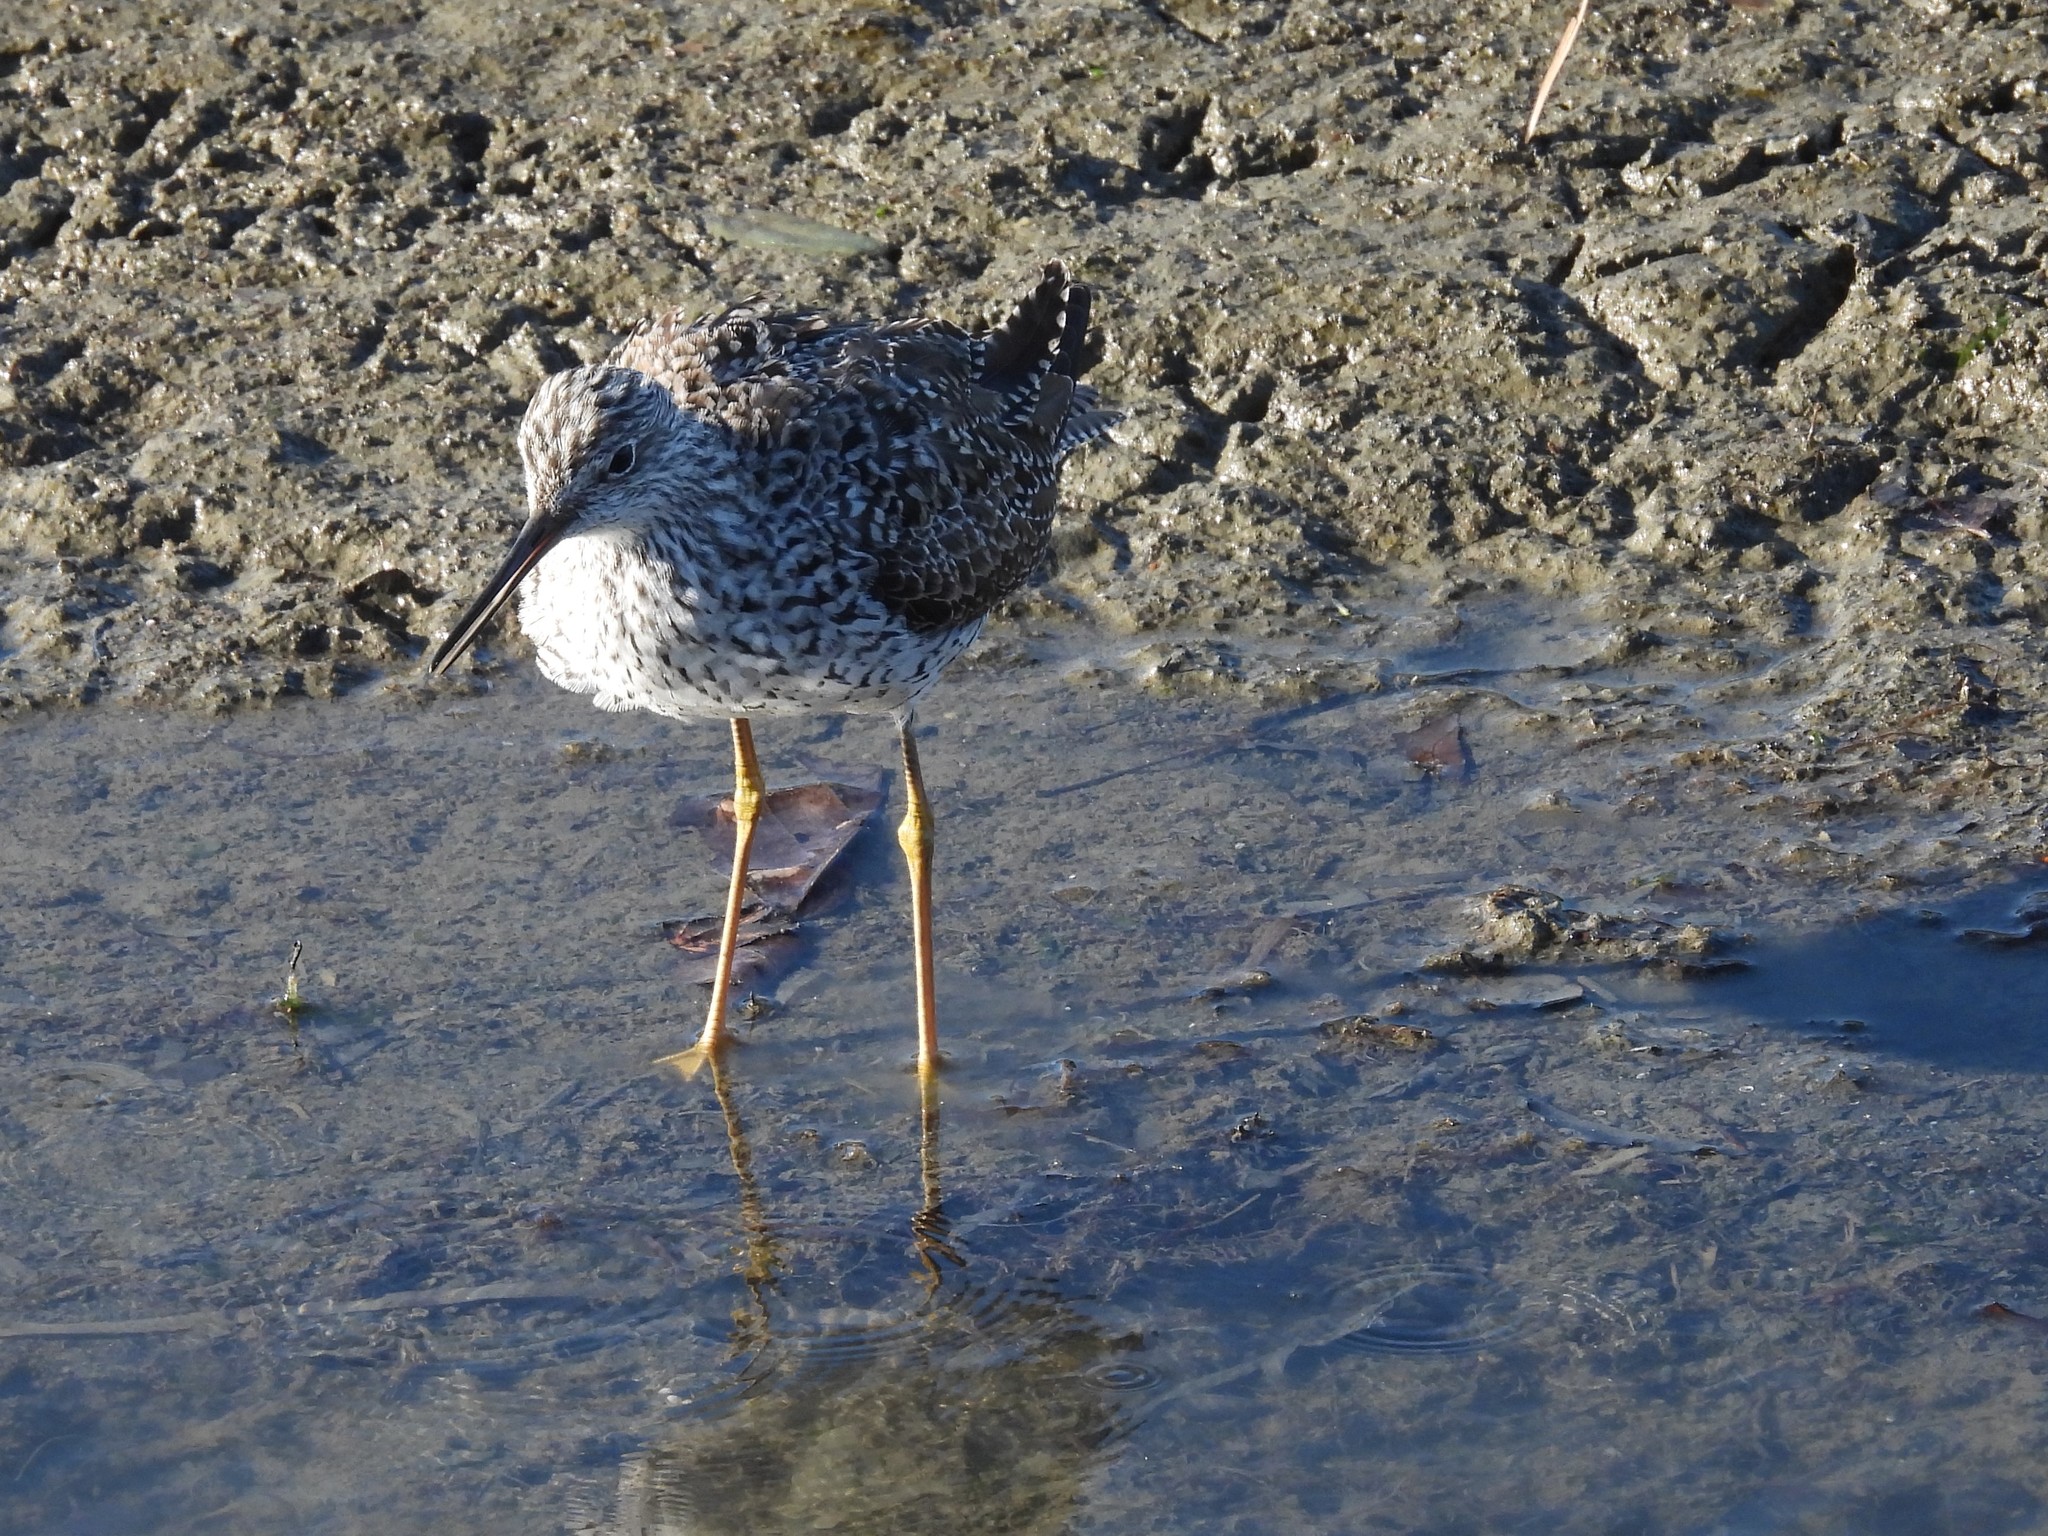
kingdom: Animalia
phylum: Chordata
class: Aves
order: Charadriiformes
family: Scolopacidae
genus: Tringa
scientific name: Tringa melanoleuca
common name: Greater yellowlegs
